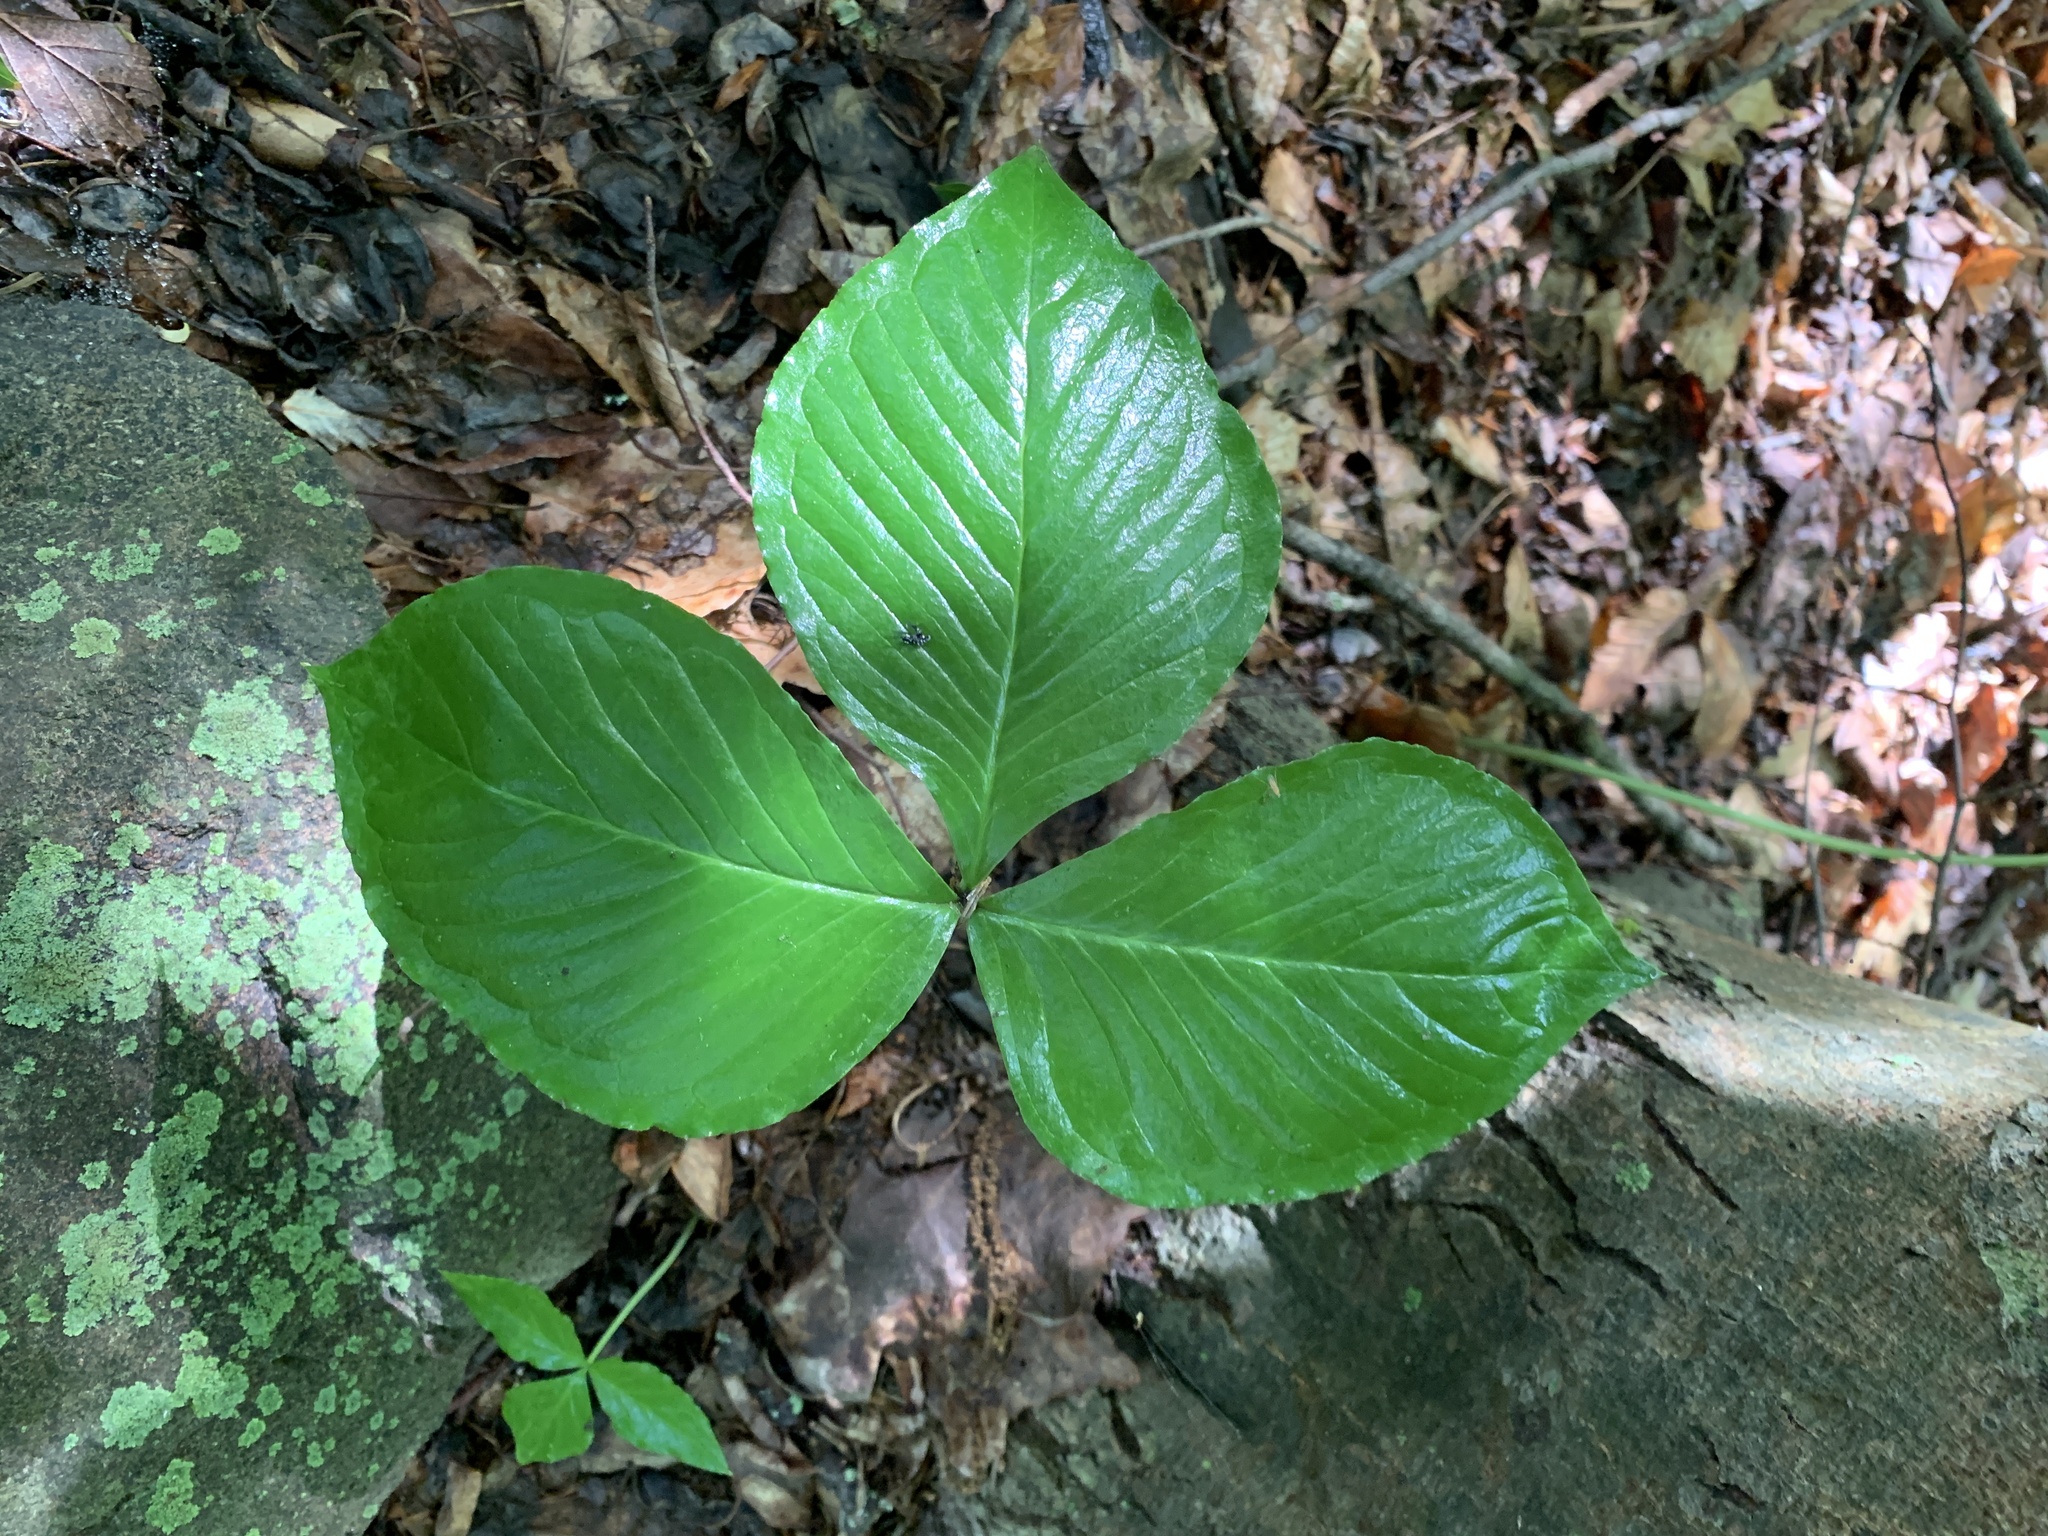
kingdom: Plantae
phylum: Tracheophyta
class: Liliopsida
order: Alismatales
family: Araceae
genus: Arisaema
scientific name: Arisaema triphyllum
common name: Jack-in-the-pulpit
